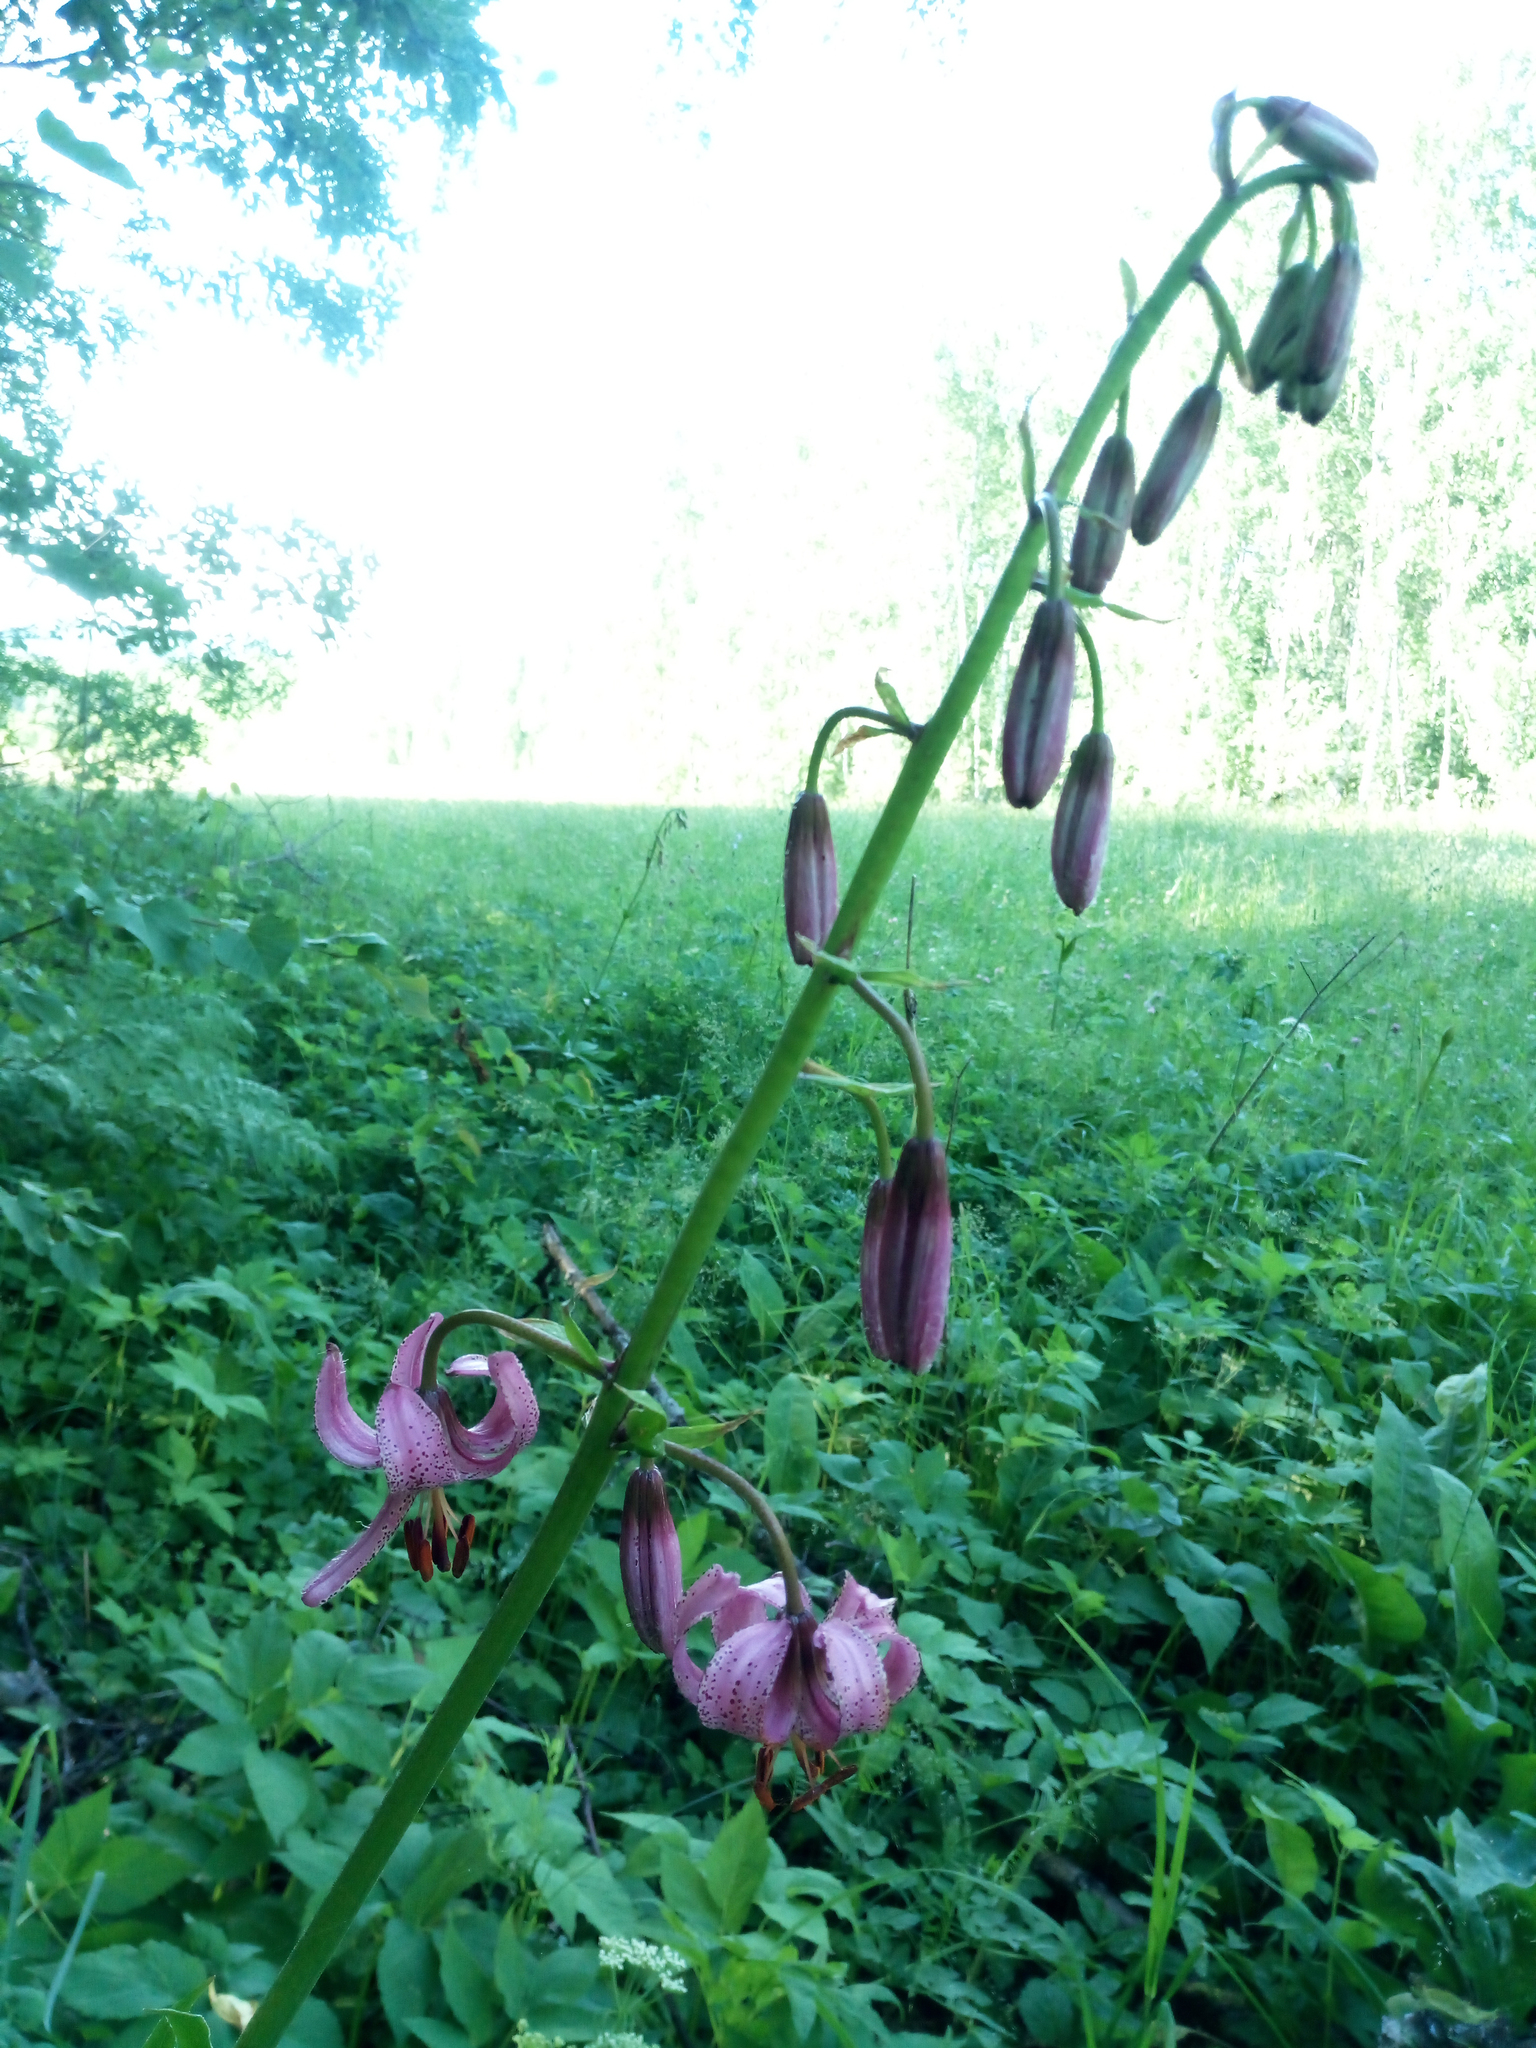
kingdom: Plantae
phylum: Tracheophyta
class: Liliopsida
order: Liliales
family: Liliaceae
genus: Lilium
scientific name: Lilium martagon
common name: Martagon lily
